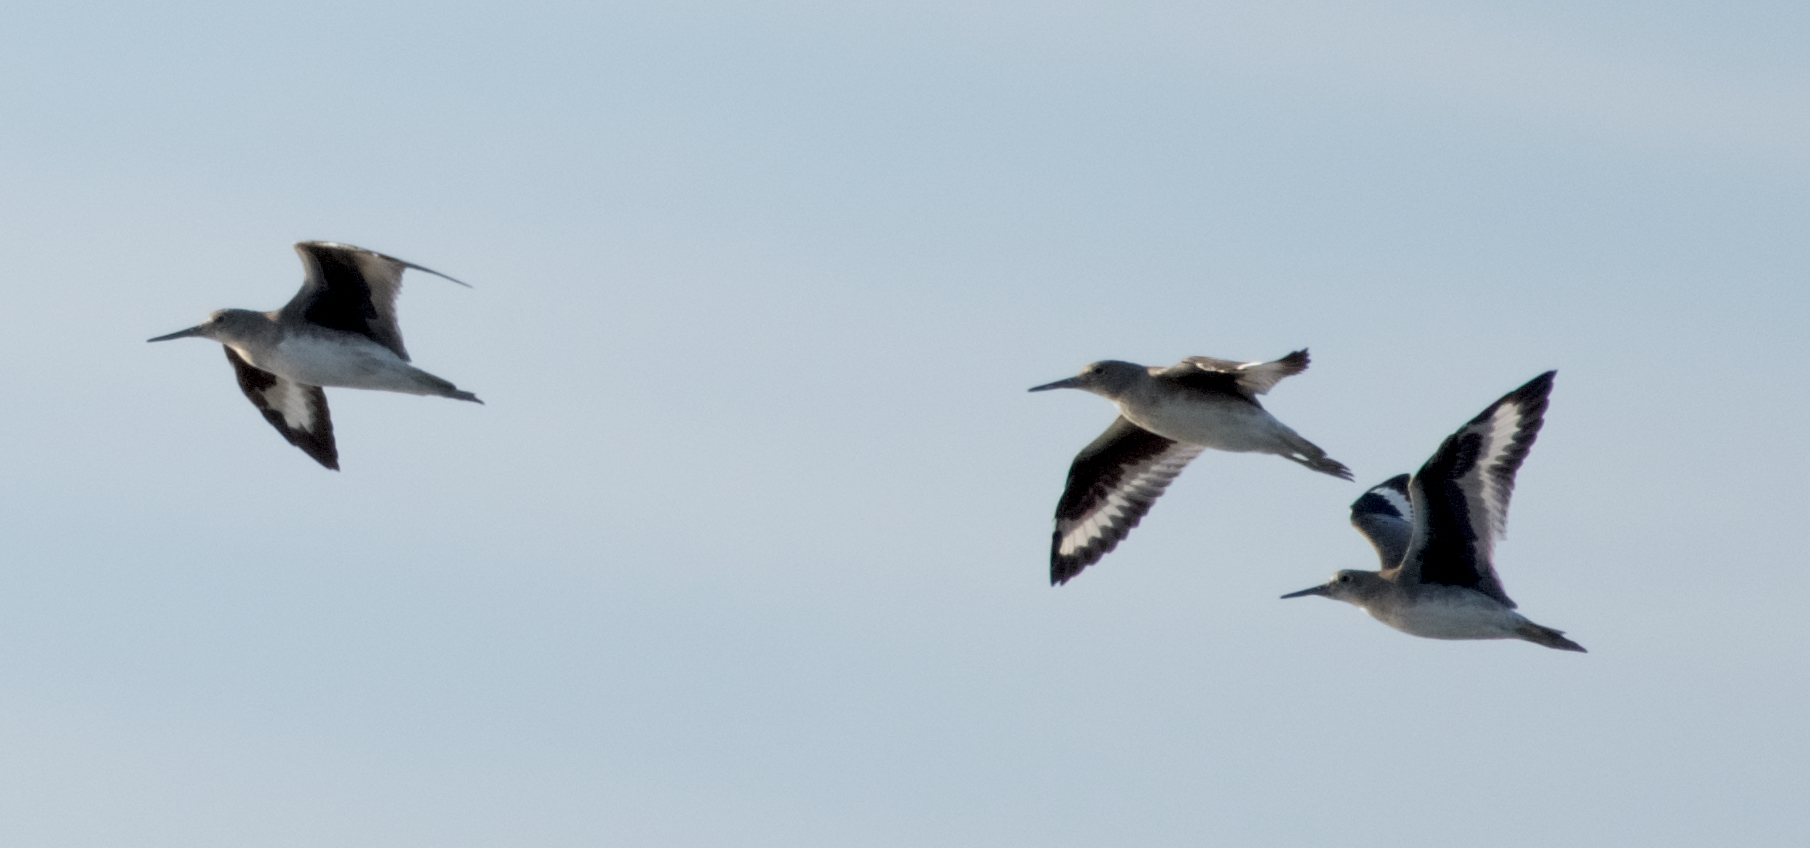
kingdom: Animalia
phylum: Chordata
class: Aves
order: Charadriiformes
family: Scolopacidae
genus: Tringa
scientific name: Tringa semipalmata
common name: Willet
